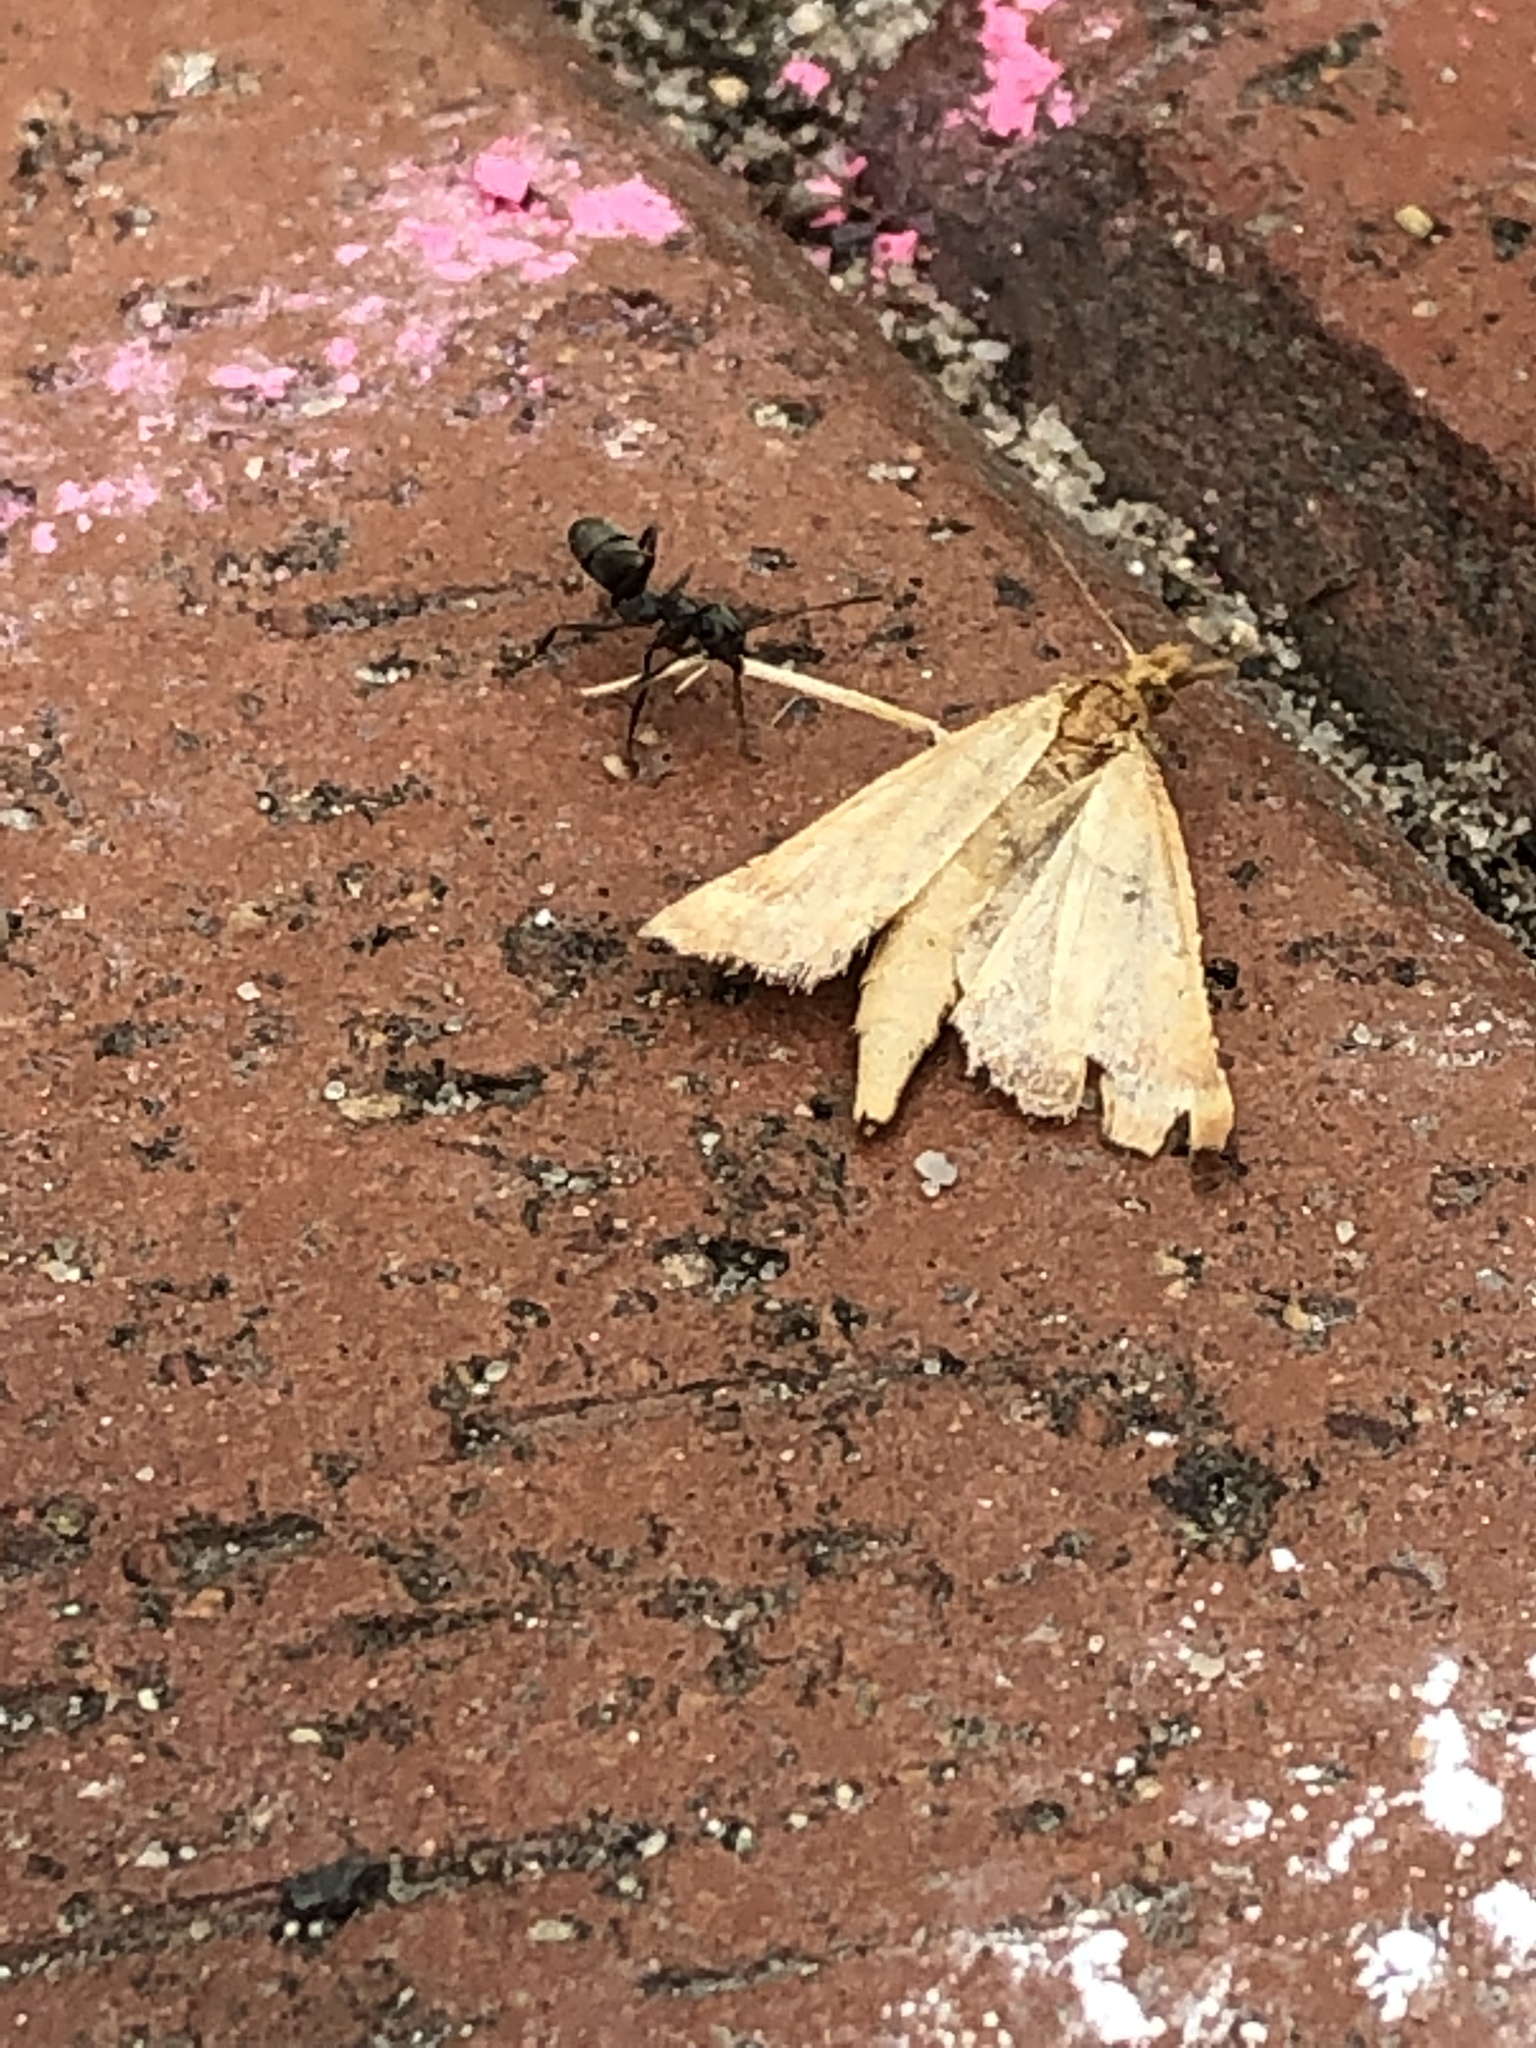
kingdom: Animalia
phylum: Arthropoda
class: Insecta
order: Lepidoptera
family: Pyralidae
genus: Synaphe
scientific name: Synaphe punctalis
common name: Long-legged tabby
